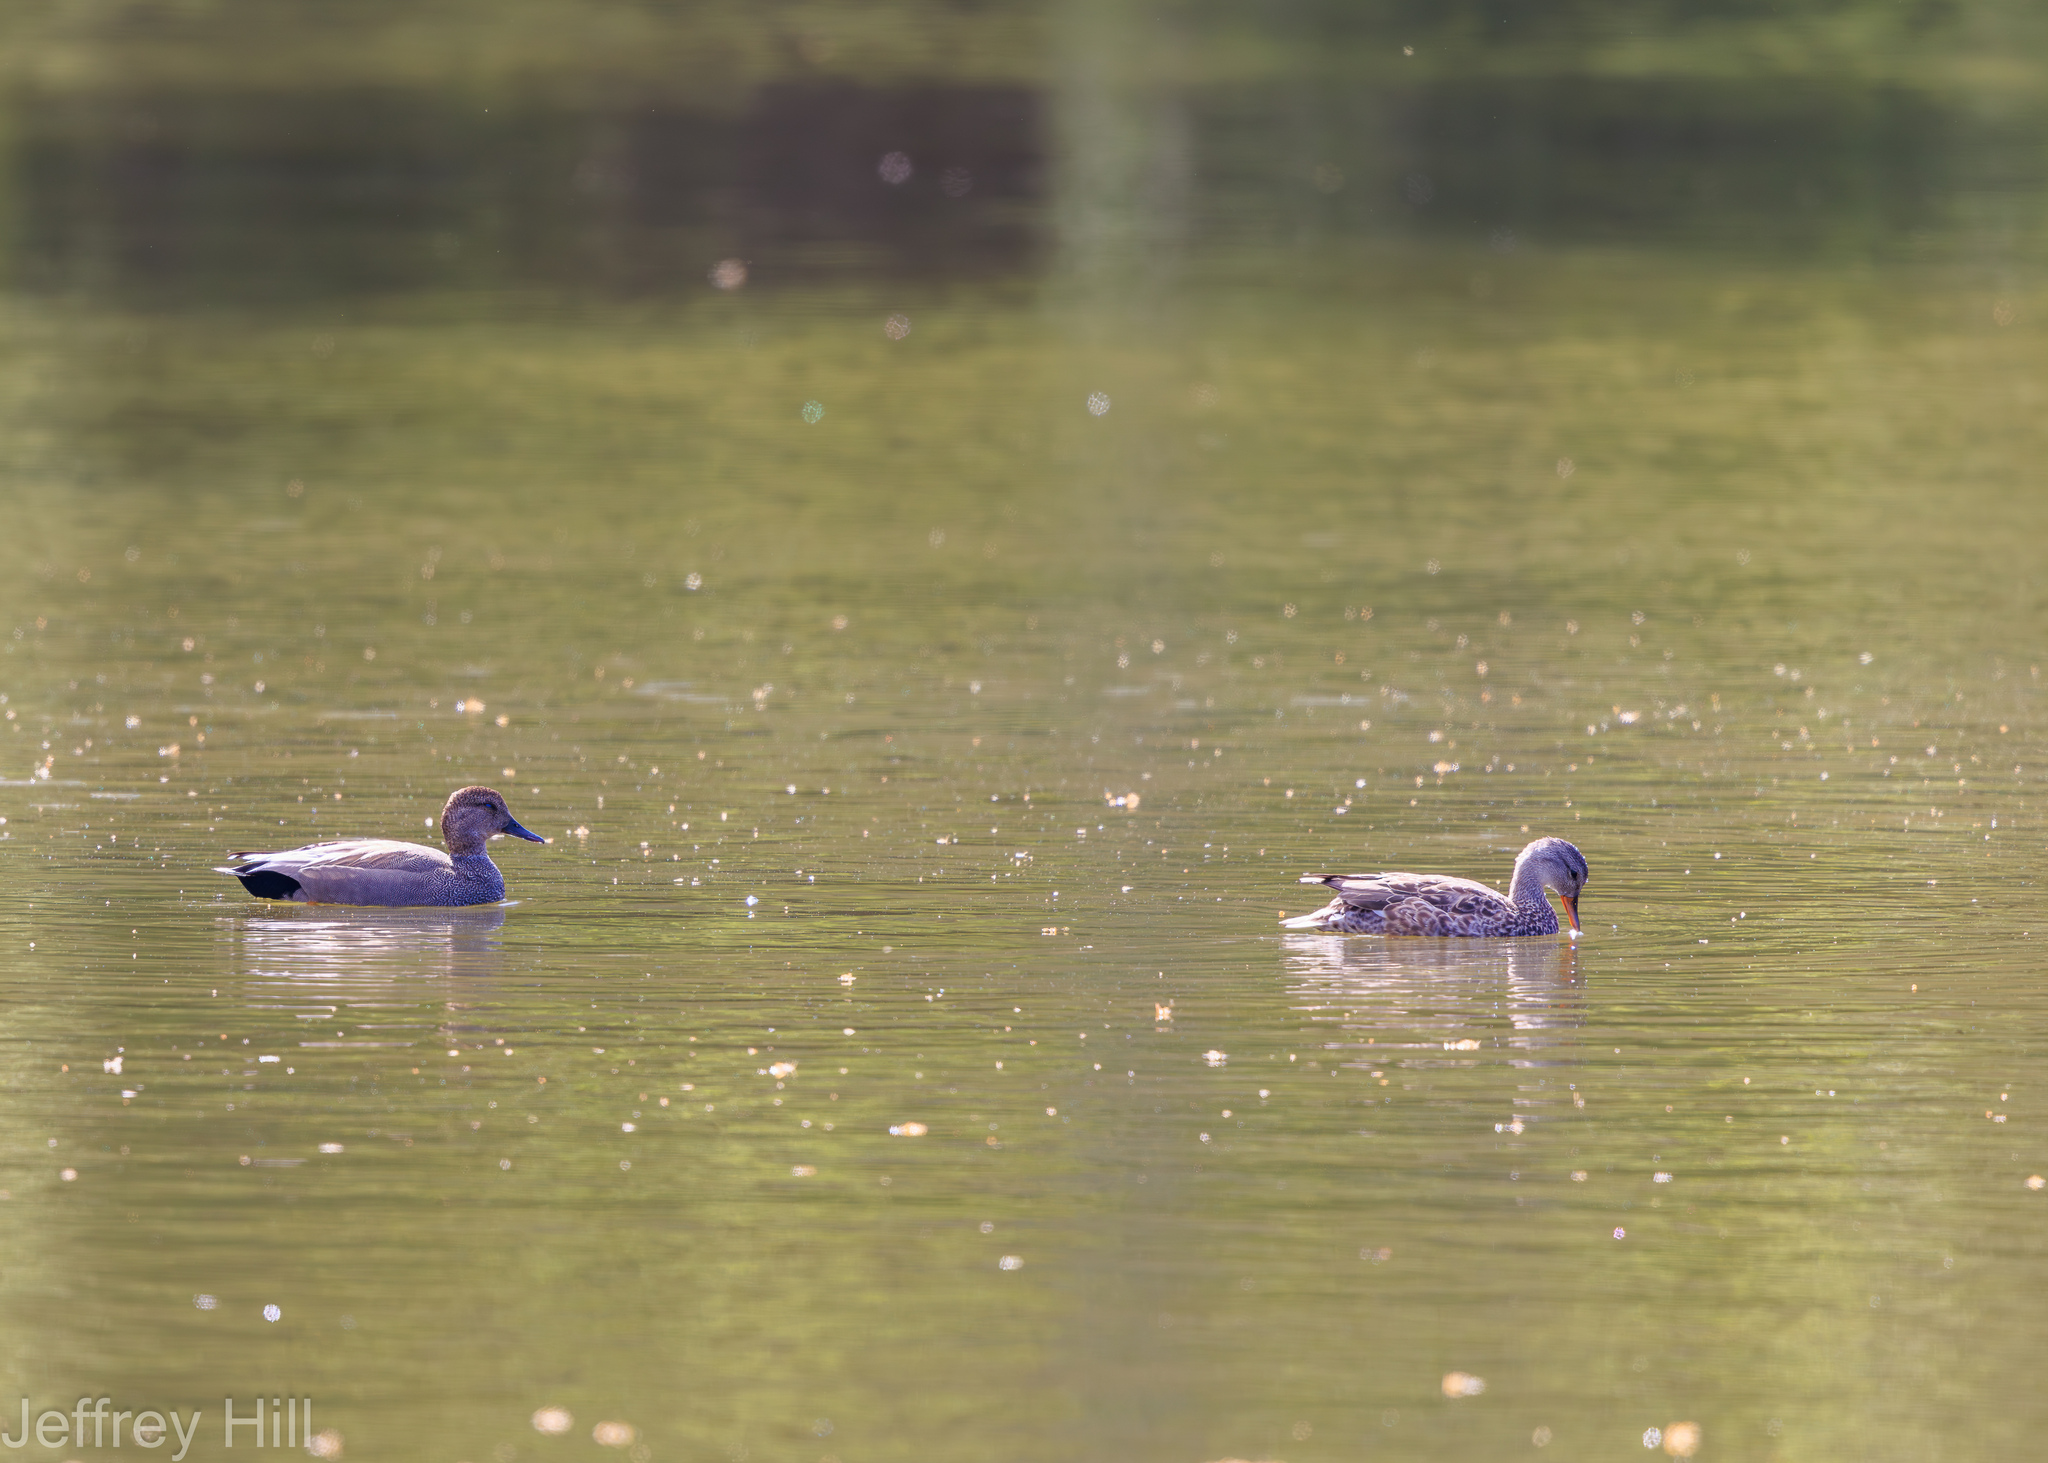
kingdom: Animalia
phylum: Chordata
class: Aves
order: Anseriformes
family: Anatidae
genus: Mareca
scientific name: Mareca strepera
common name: Gadwall
